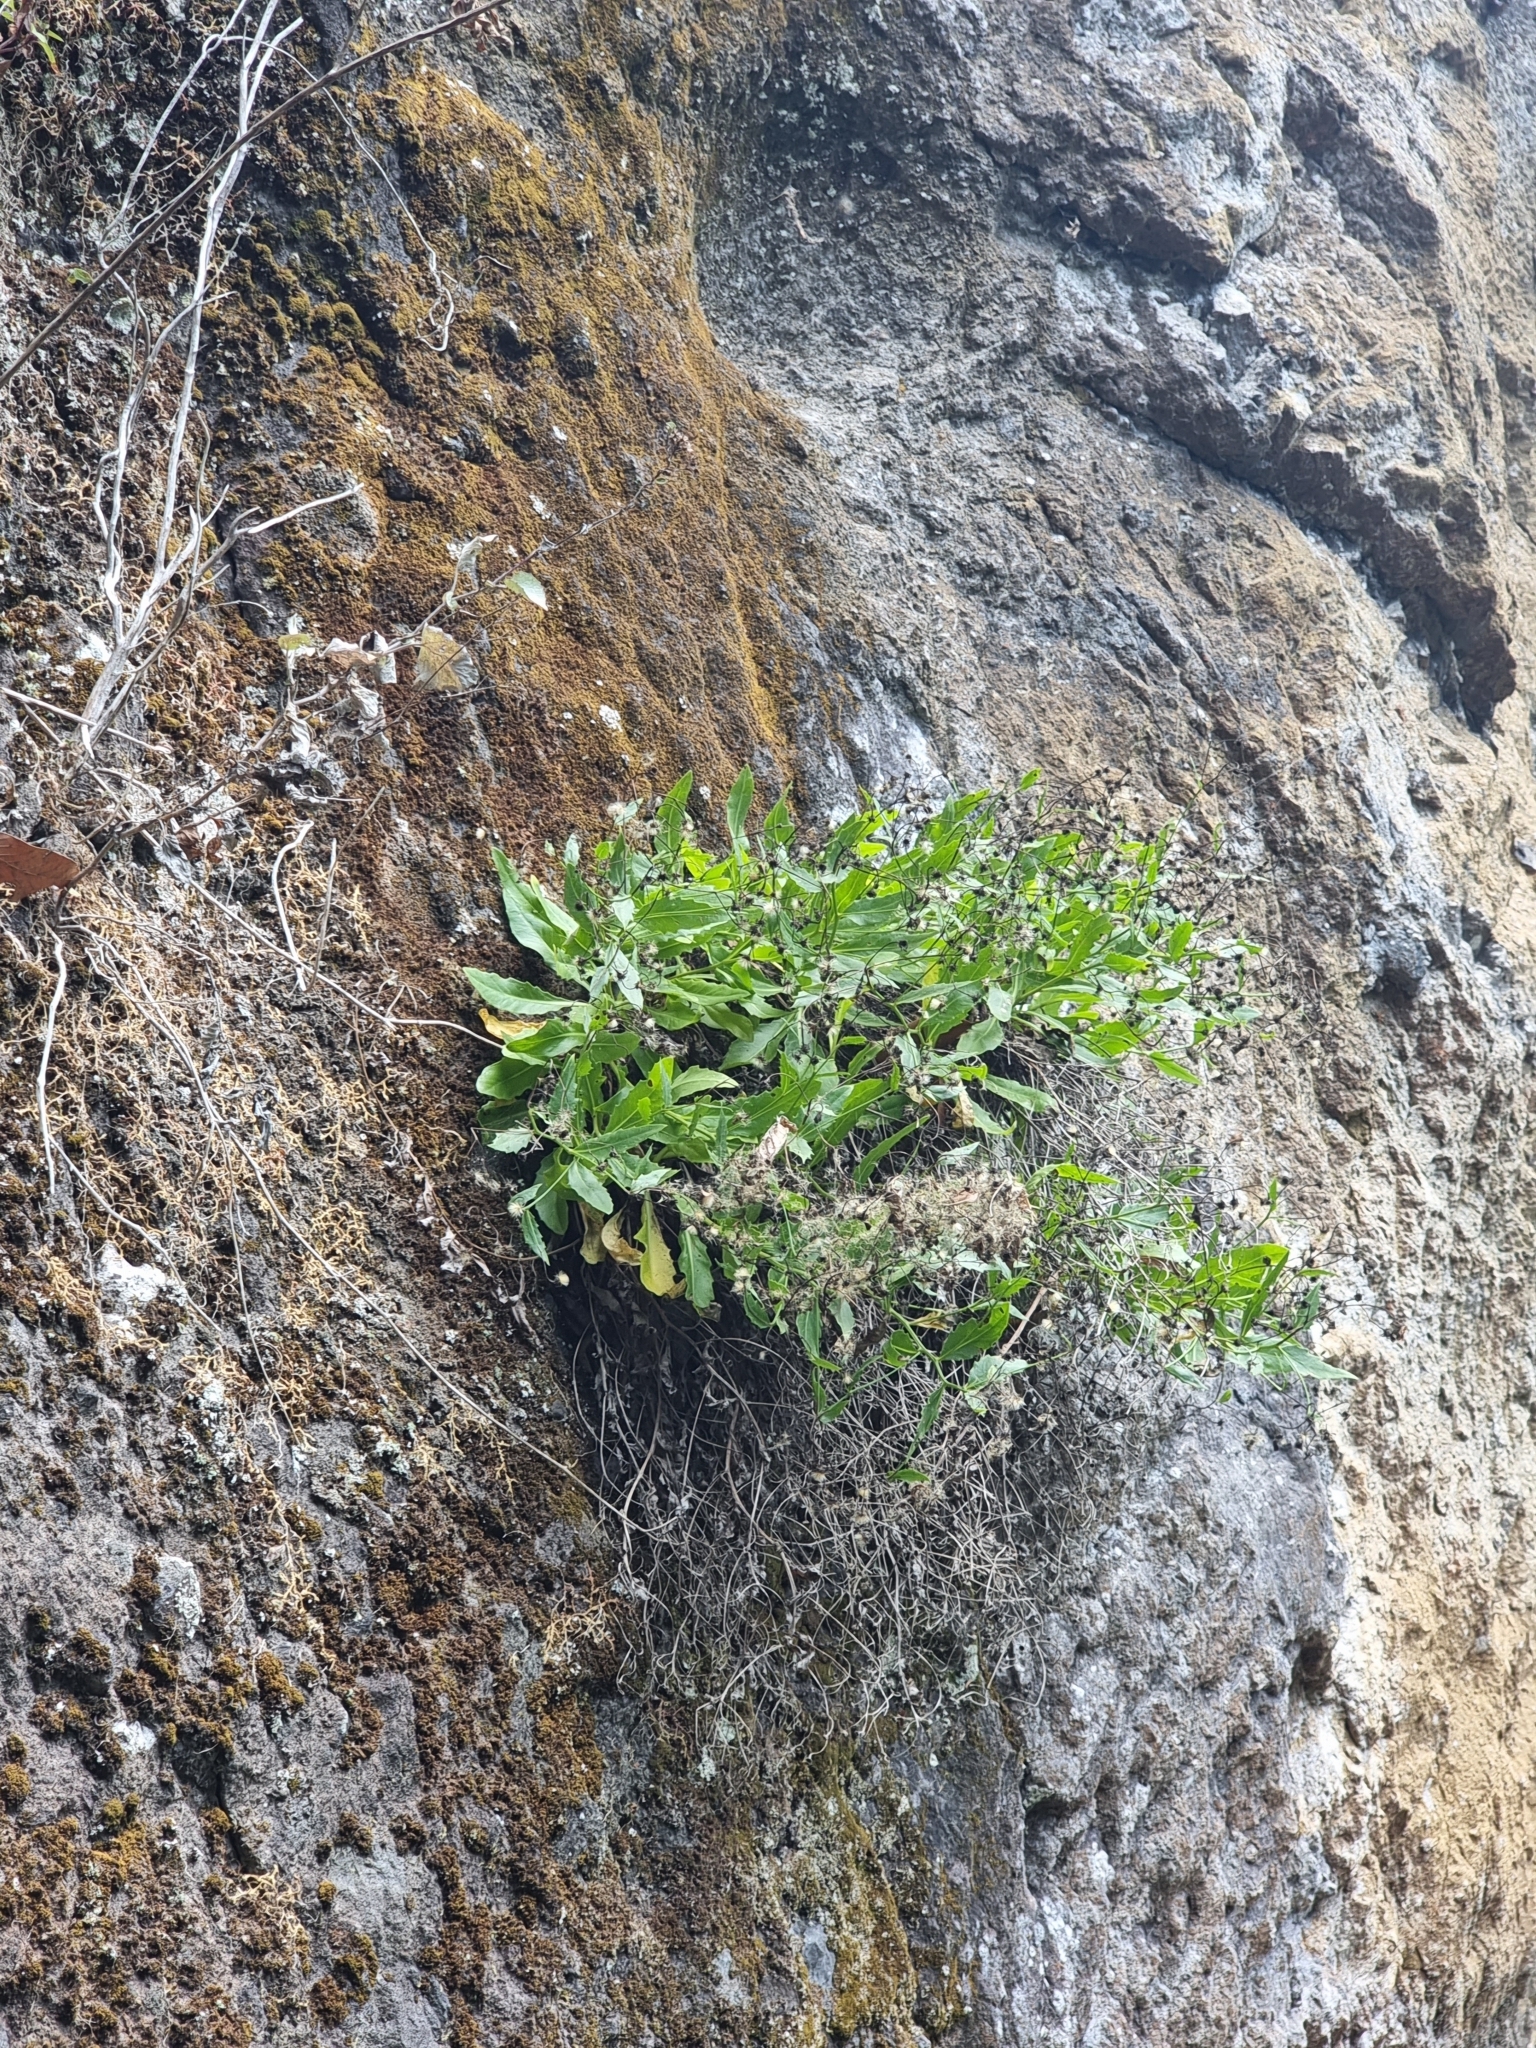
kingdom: Plantae
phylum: Tracheophyta
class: Magnoliopsida
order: Asterales
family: Asteraceae
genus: Tolpis
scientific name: Tolpis macrorhiza
